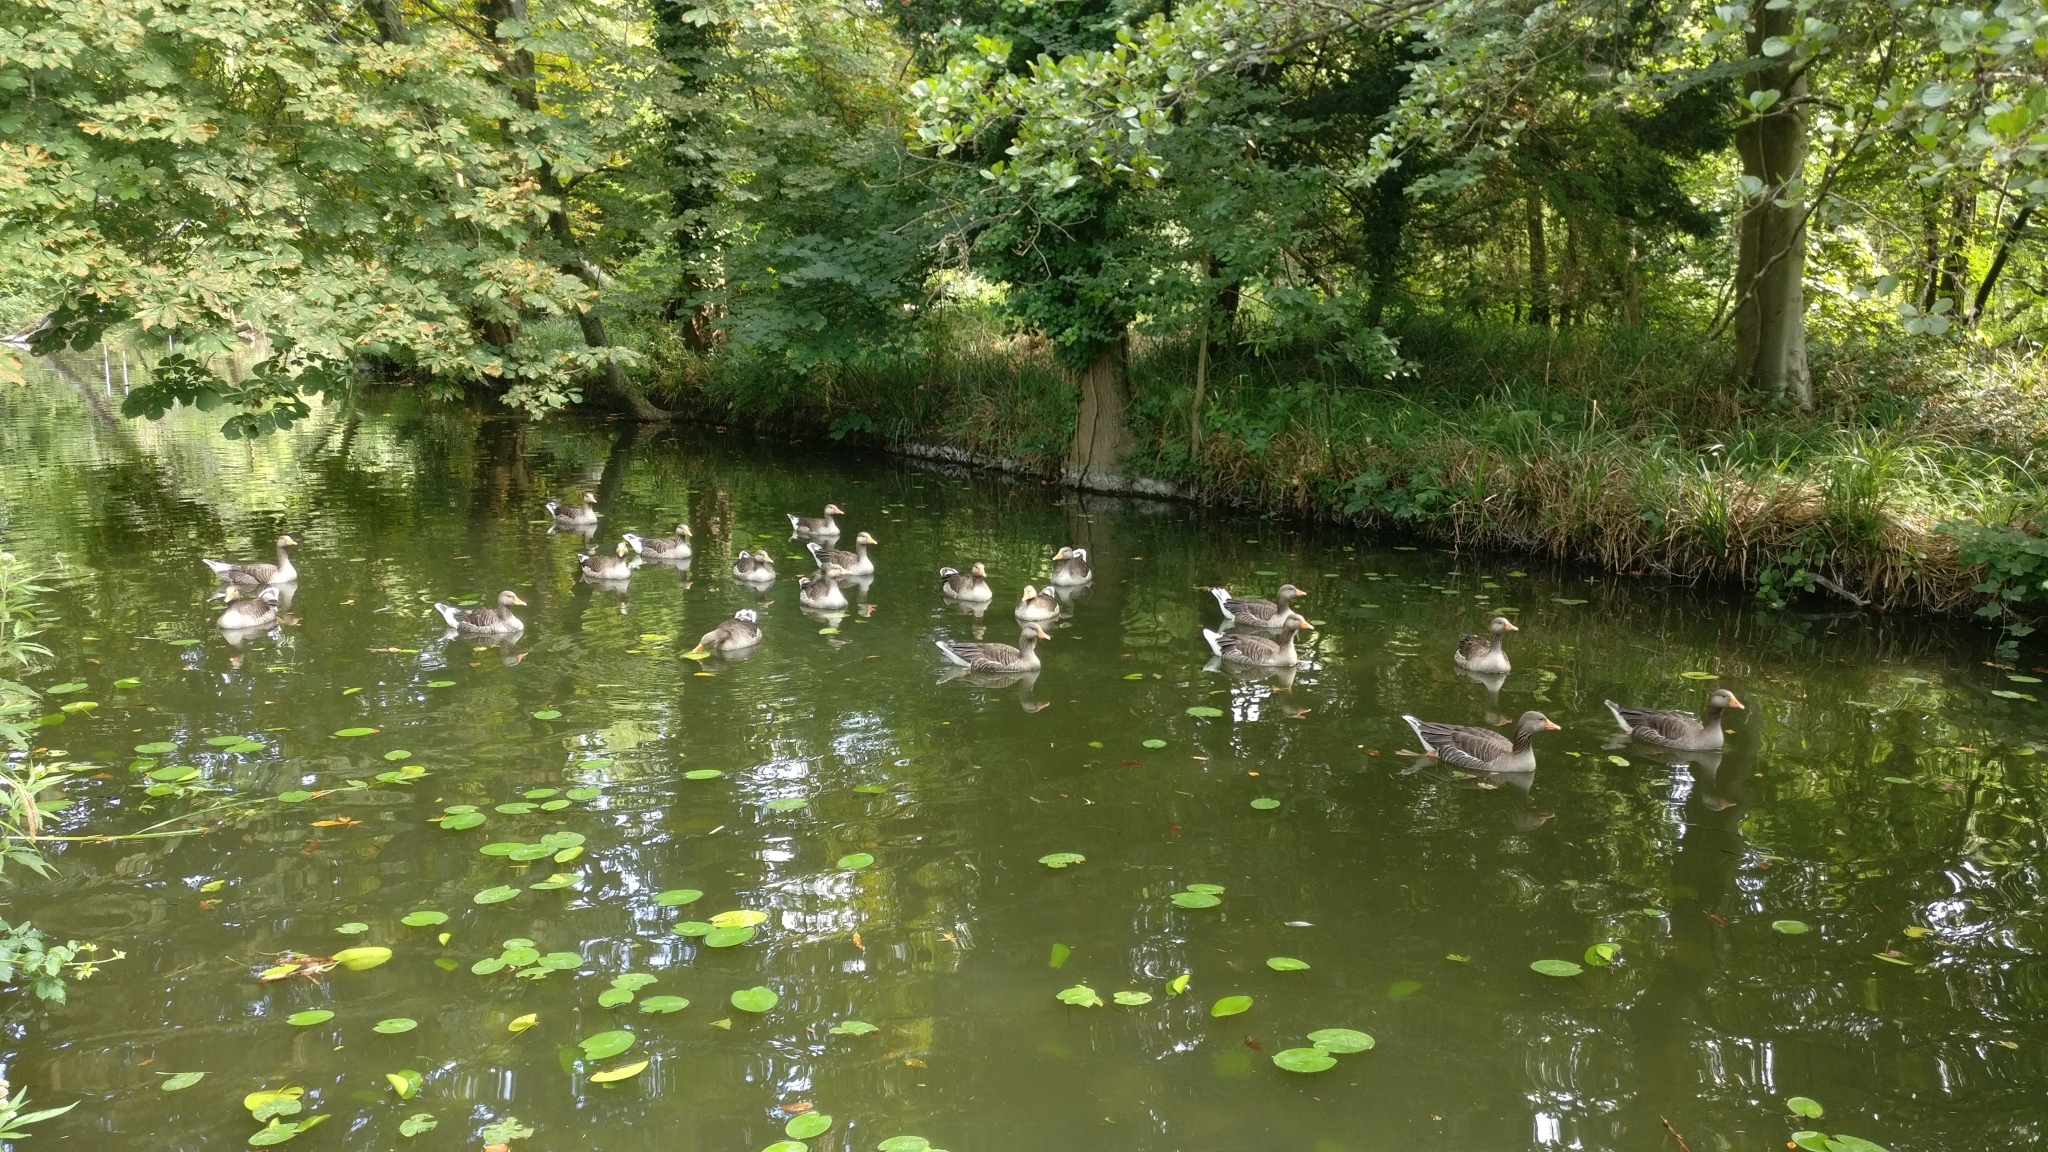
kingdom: Animalia
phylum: Chordata
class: Aves
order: Anseriformes
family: Anatidae
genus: Anser
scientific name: Anser anser
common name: Greylag goose
